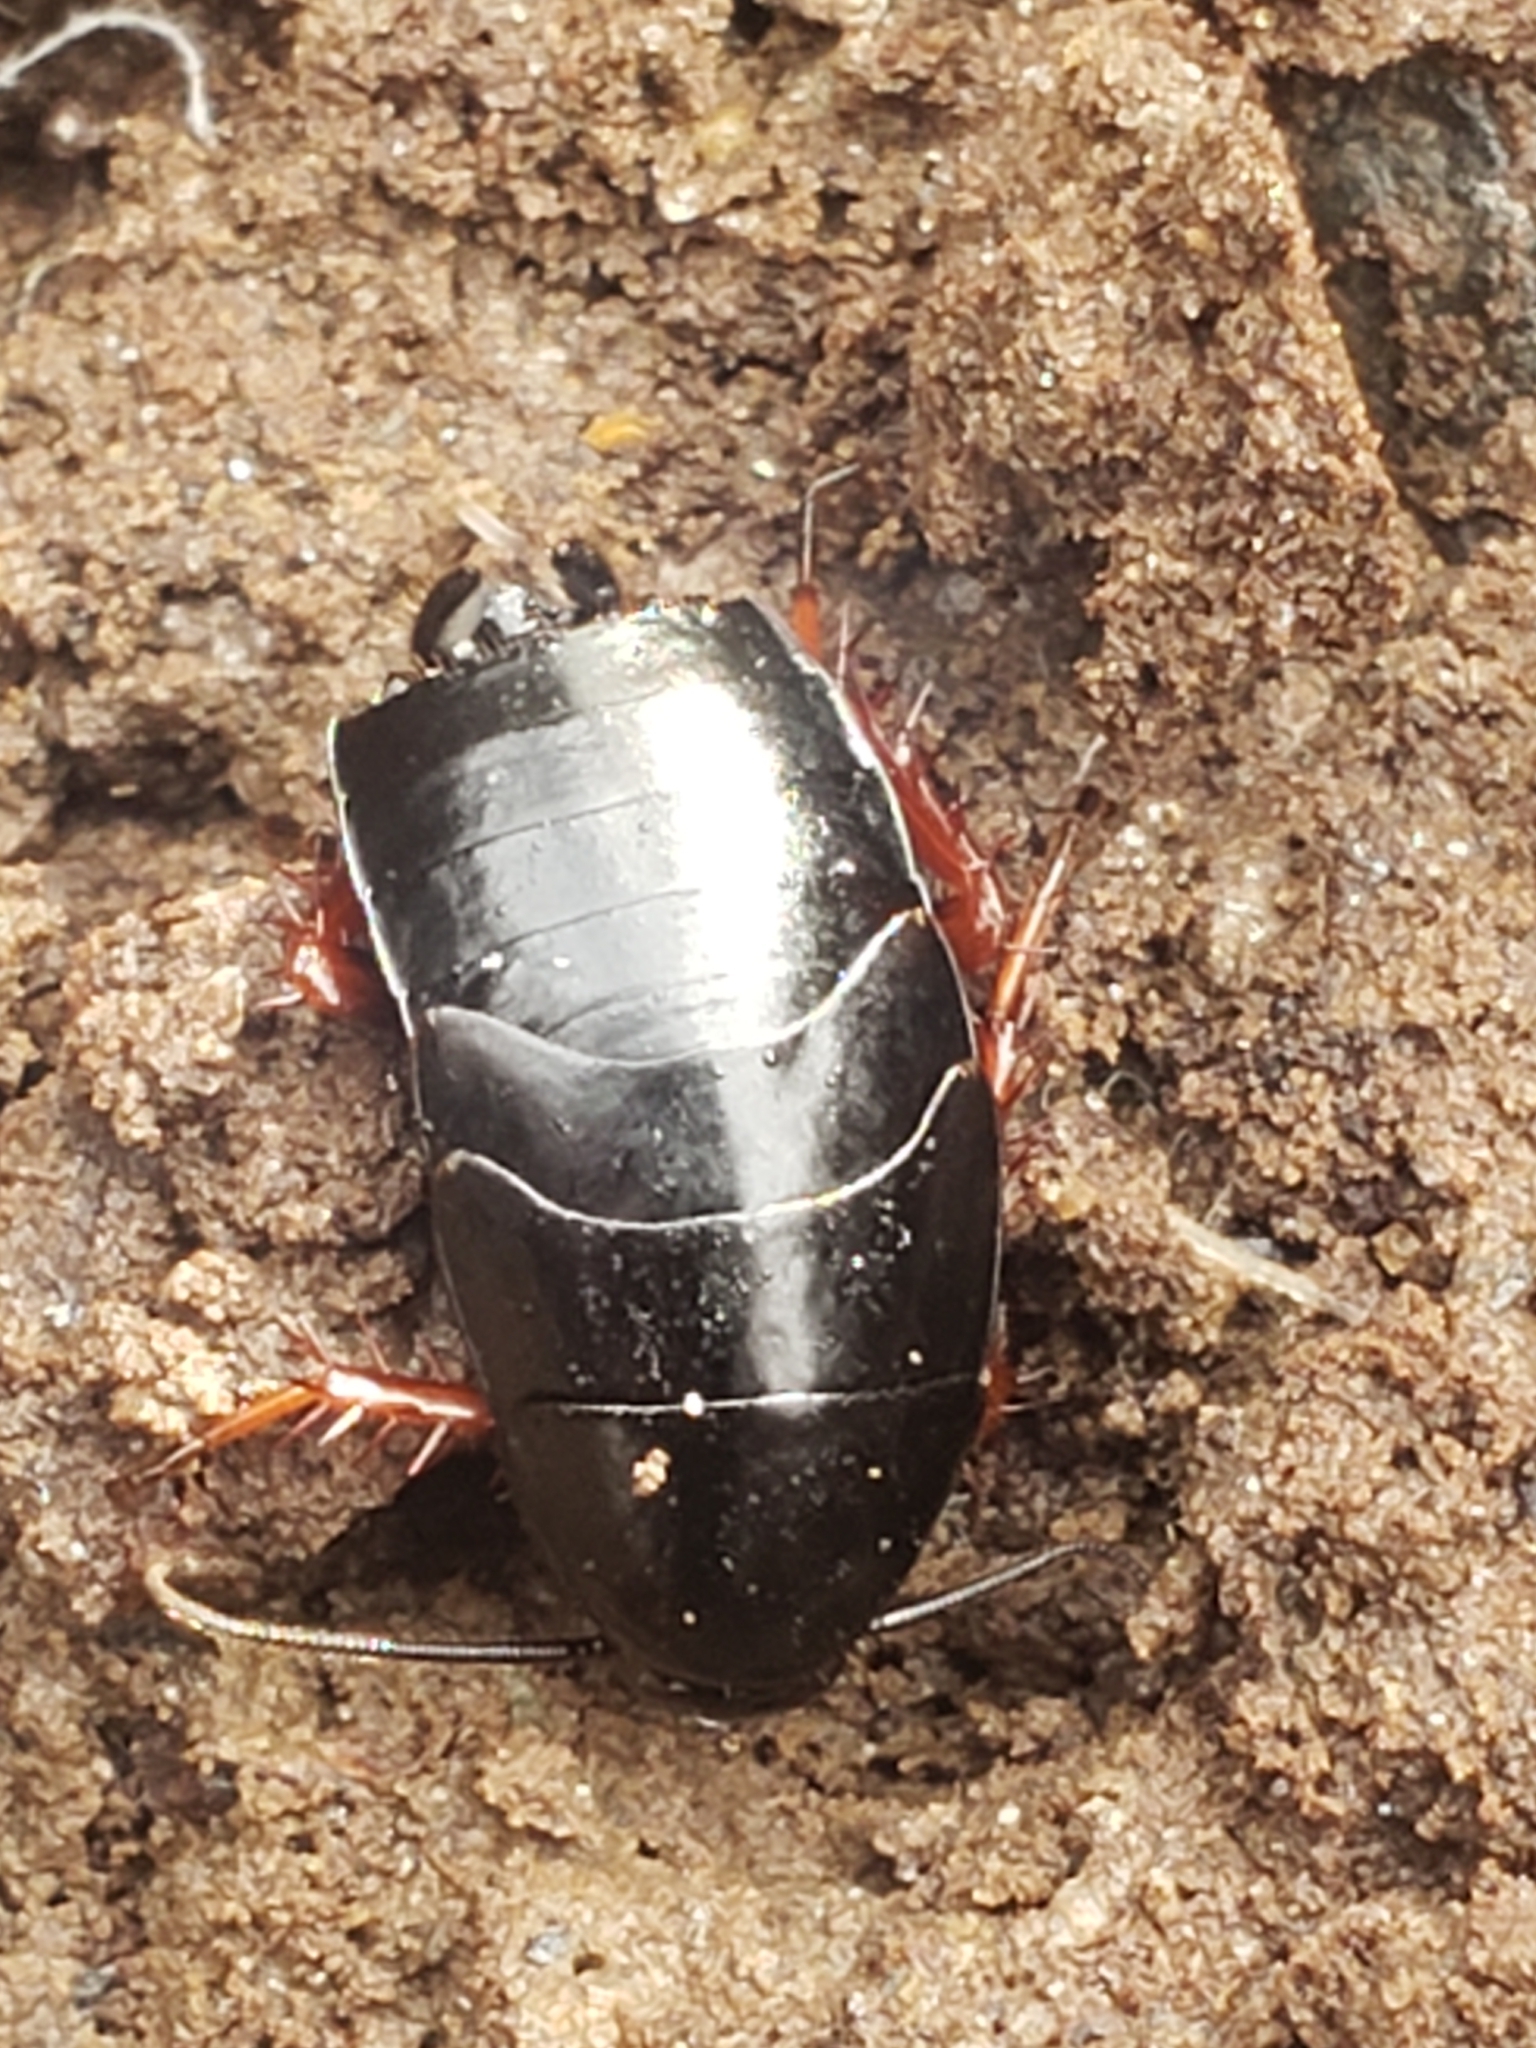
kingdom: Animalia
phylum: Arthropoda
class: Insecta
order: Blattodea
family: Ectobiidae
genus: Ischnoptera
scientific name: Ischnoptera deropeltiformis
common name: Dark wood cockroach
